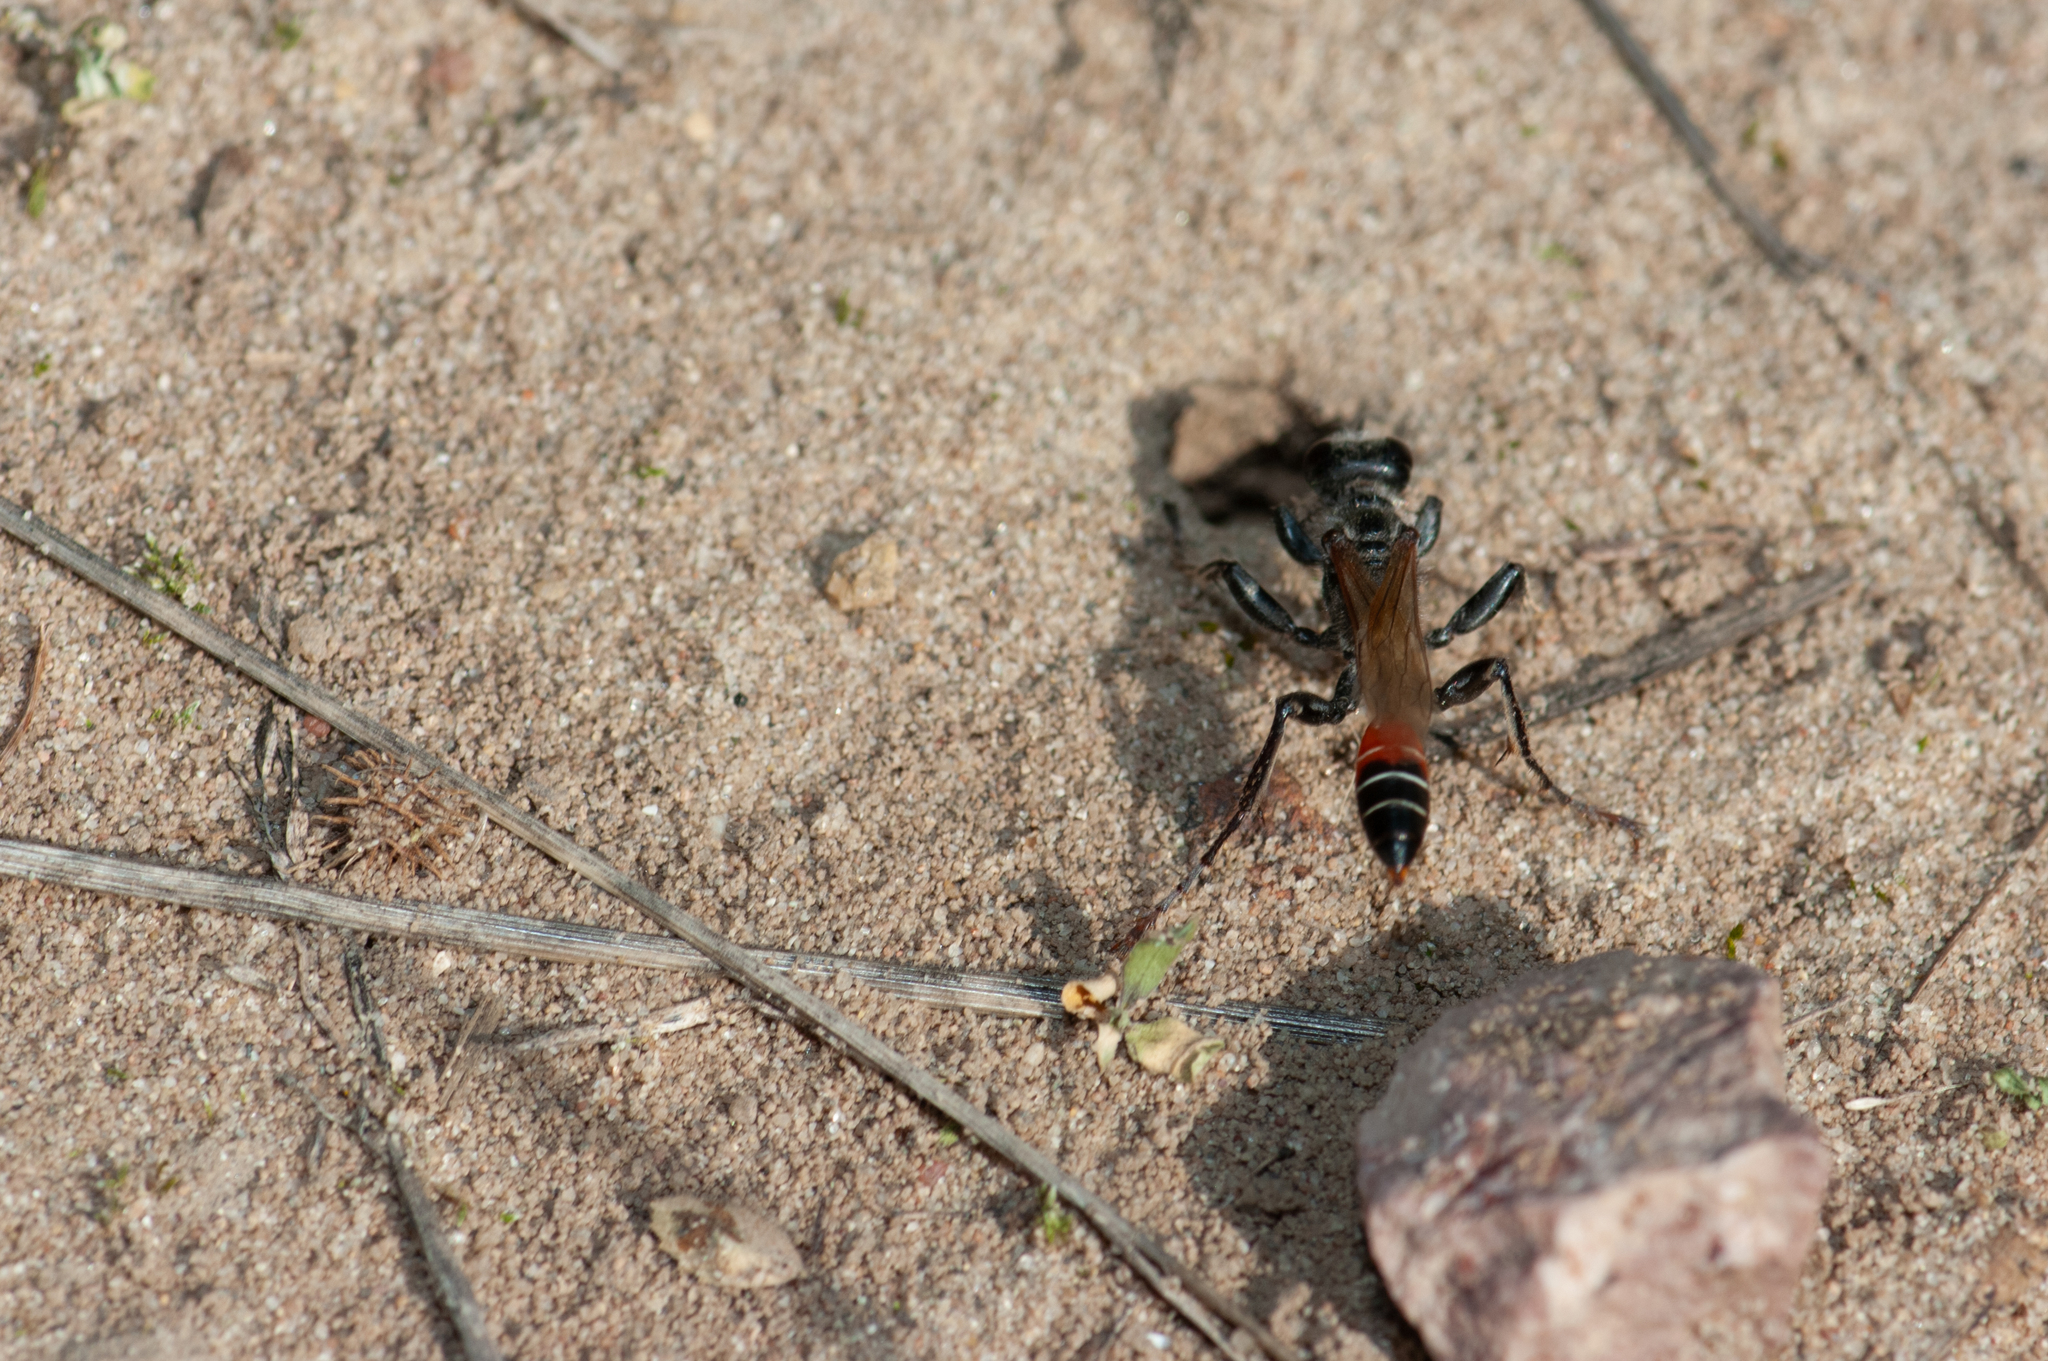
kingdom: Animalia
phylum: Arthropoda
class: Insecta
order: Hymenoptera
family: Sphecidae
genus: Prionyx
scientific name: Prionyx kirbii
